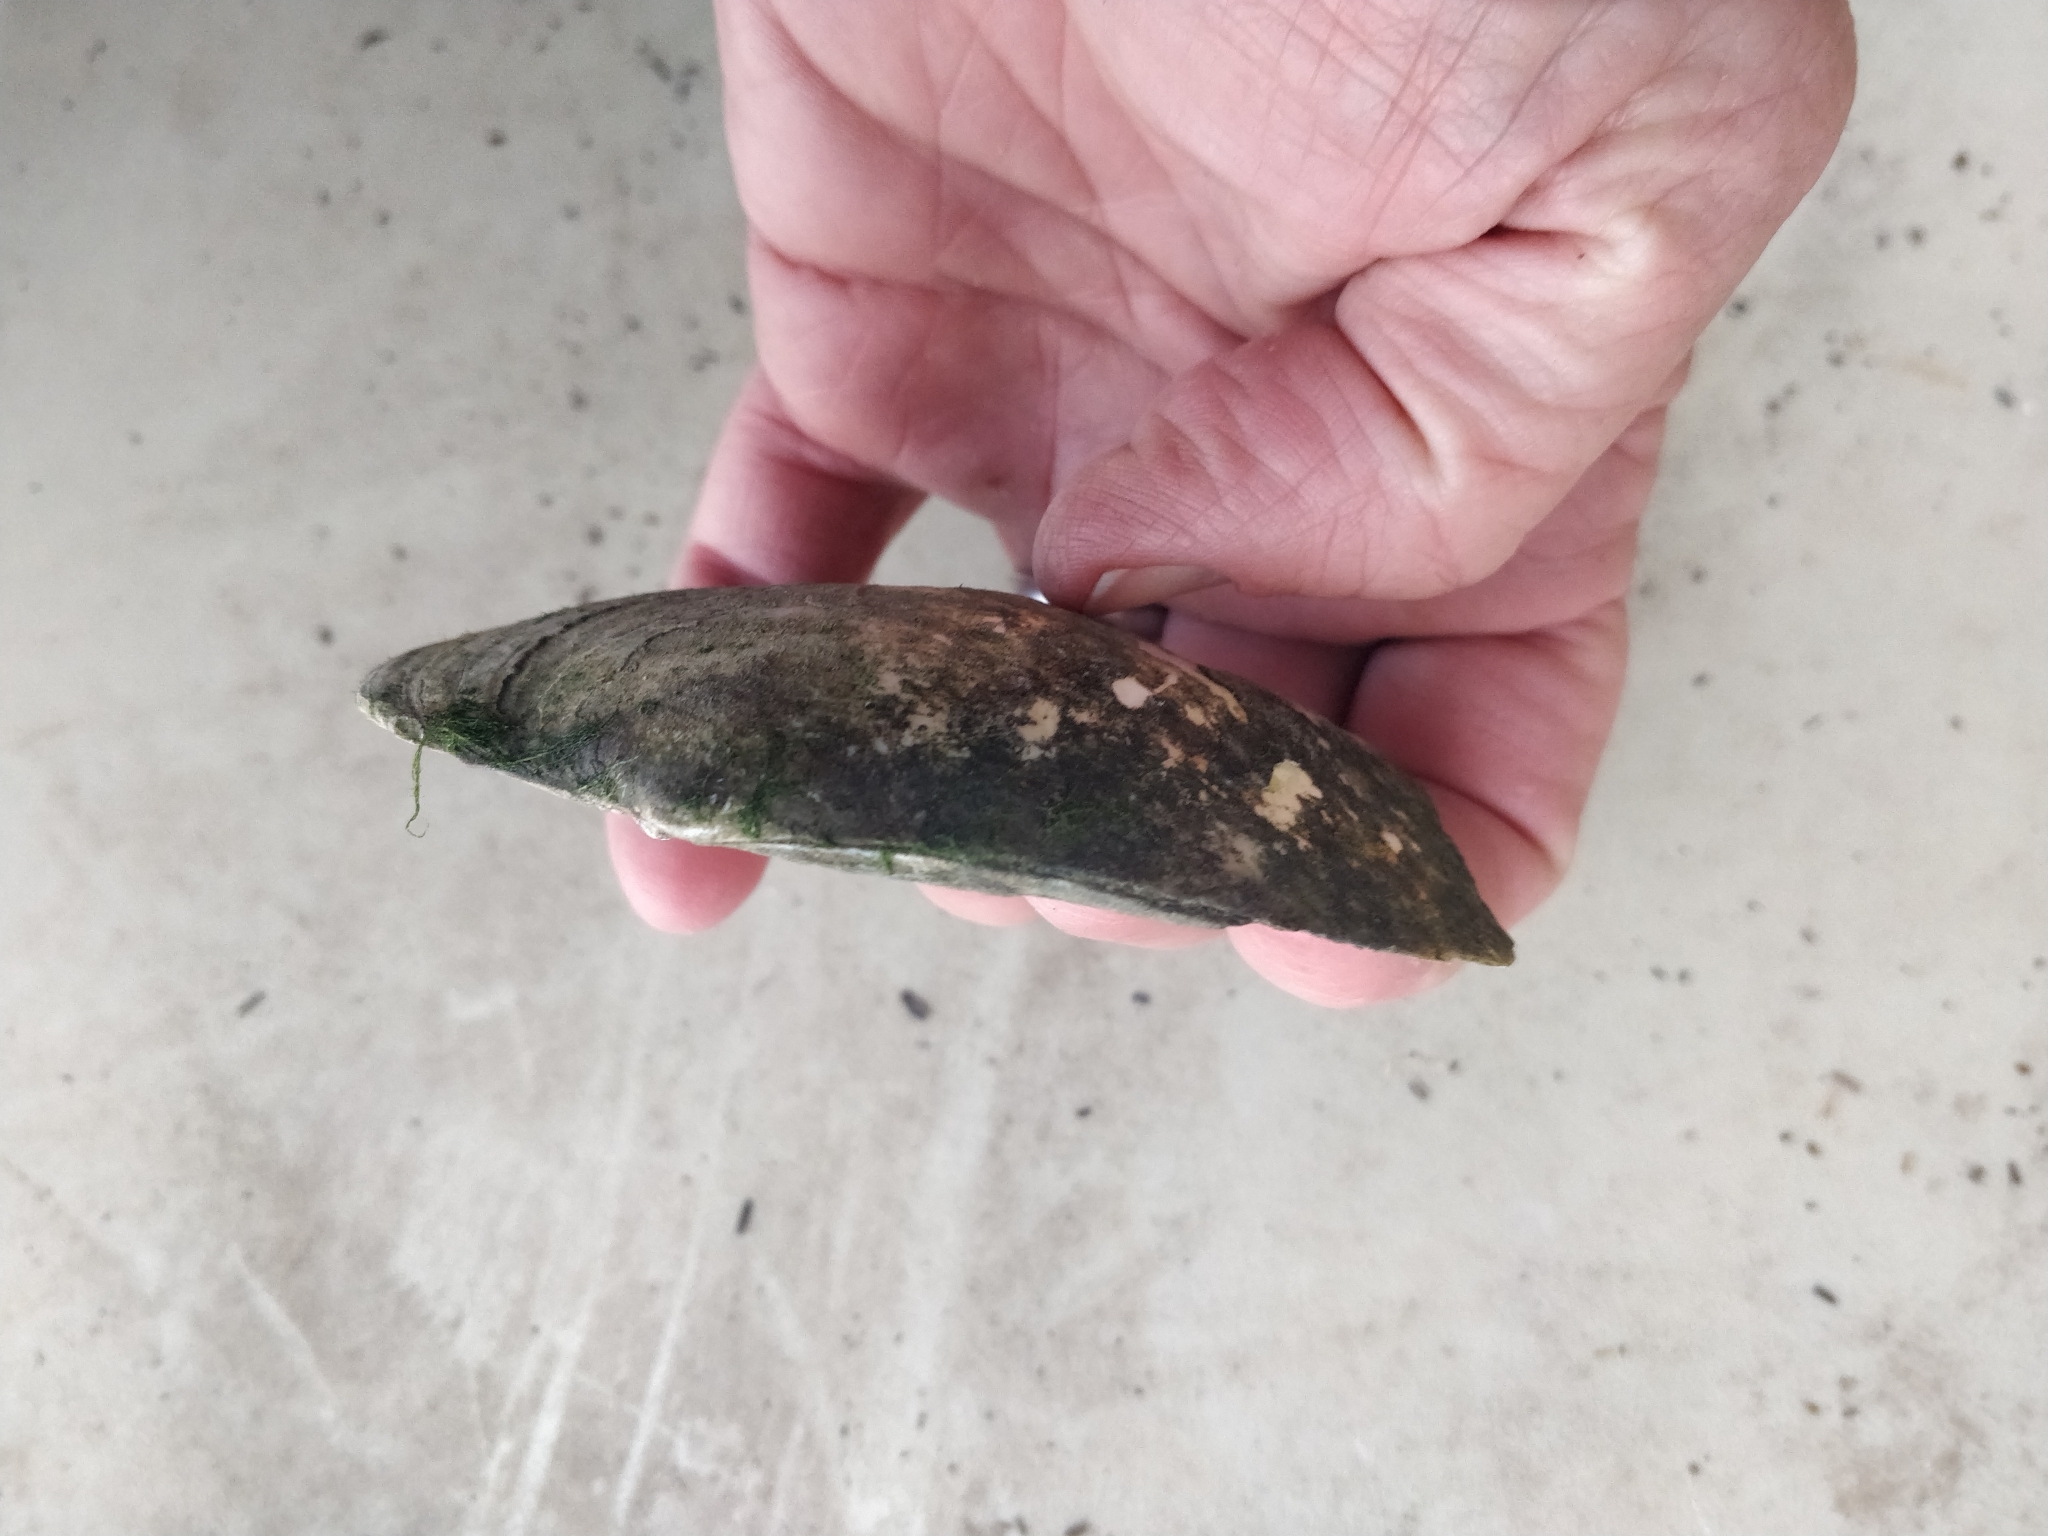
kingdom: Animalia
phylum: Mollusca
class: Bivalvia
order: Unionida
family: Unionidae
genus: Lasmigona
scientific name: Lasmigona complanata
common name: White heelsplitter
